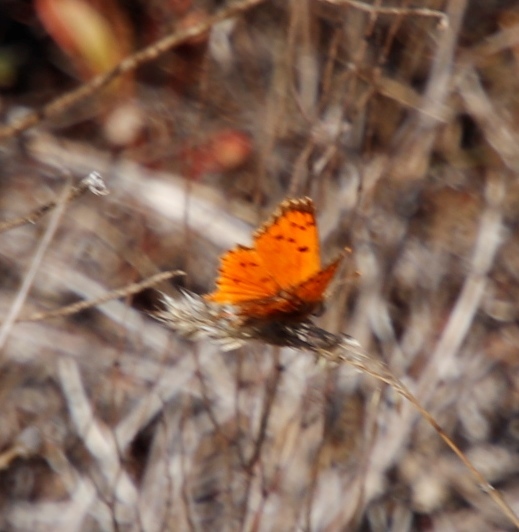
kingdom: Animalia
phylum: Arthropoda
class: Insecta
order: Lepidoptera
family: Lycaenidae
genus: Chrysoritis
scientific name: Chrysoritis
